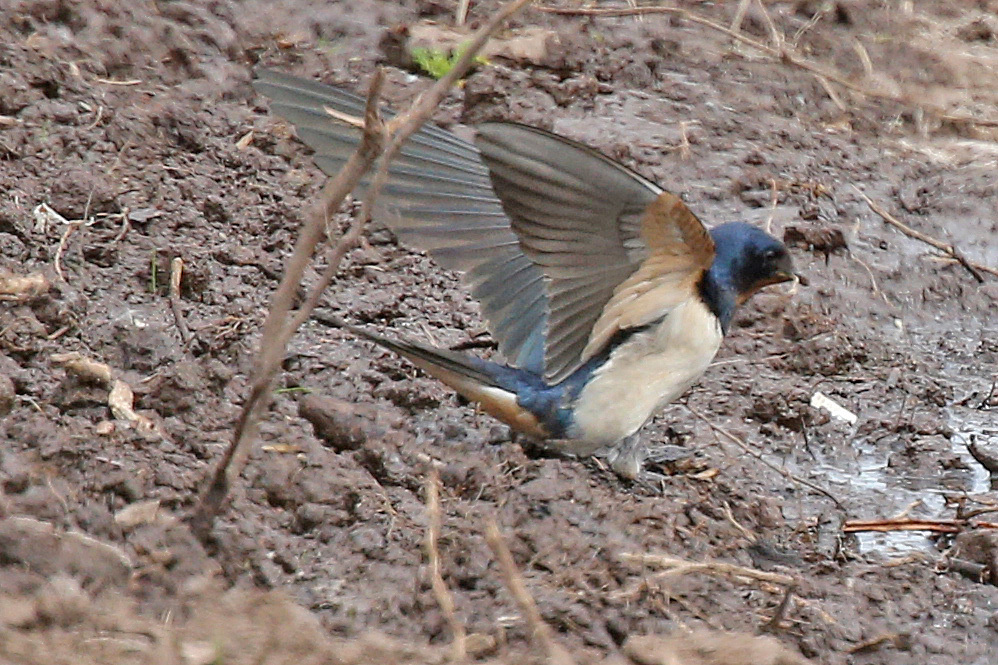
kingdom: Animalia
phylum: Chordata
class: Aves
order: Passeriformes
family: Hirundinidae
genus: Hirundo
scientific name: Hirundo rustica
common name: Barn swallow
